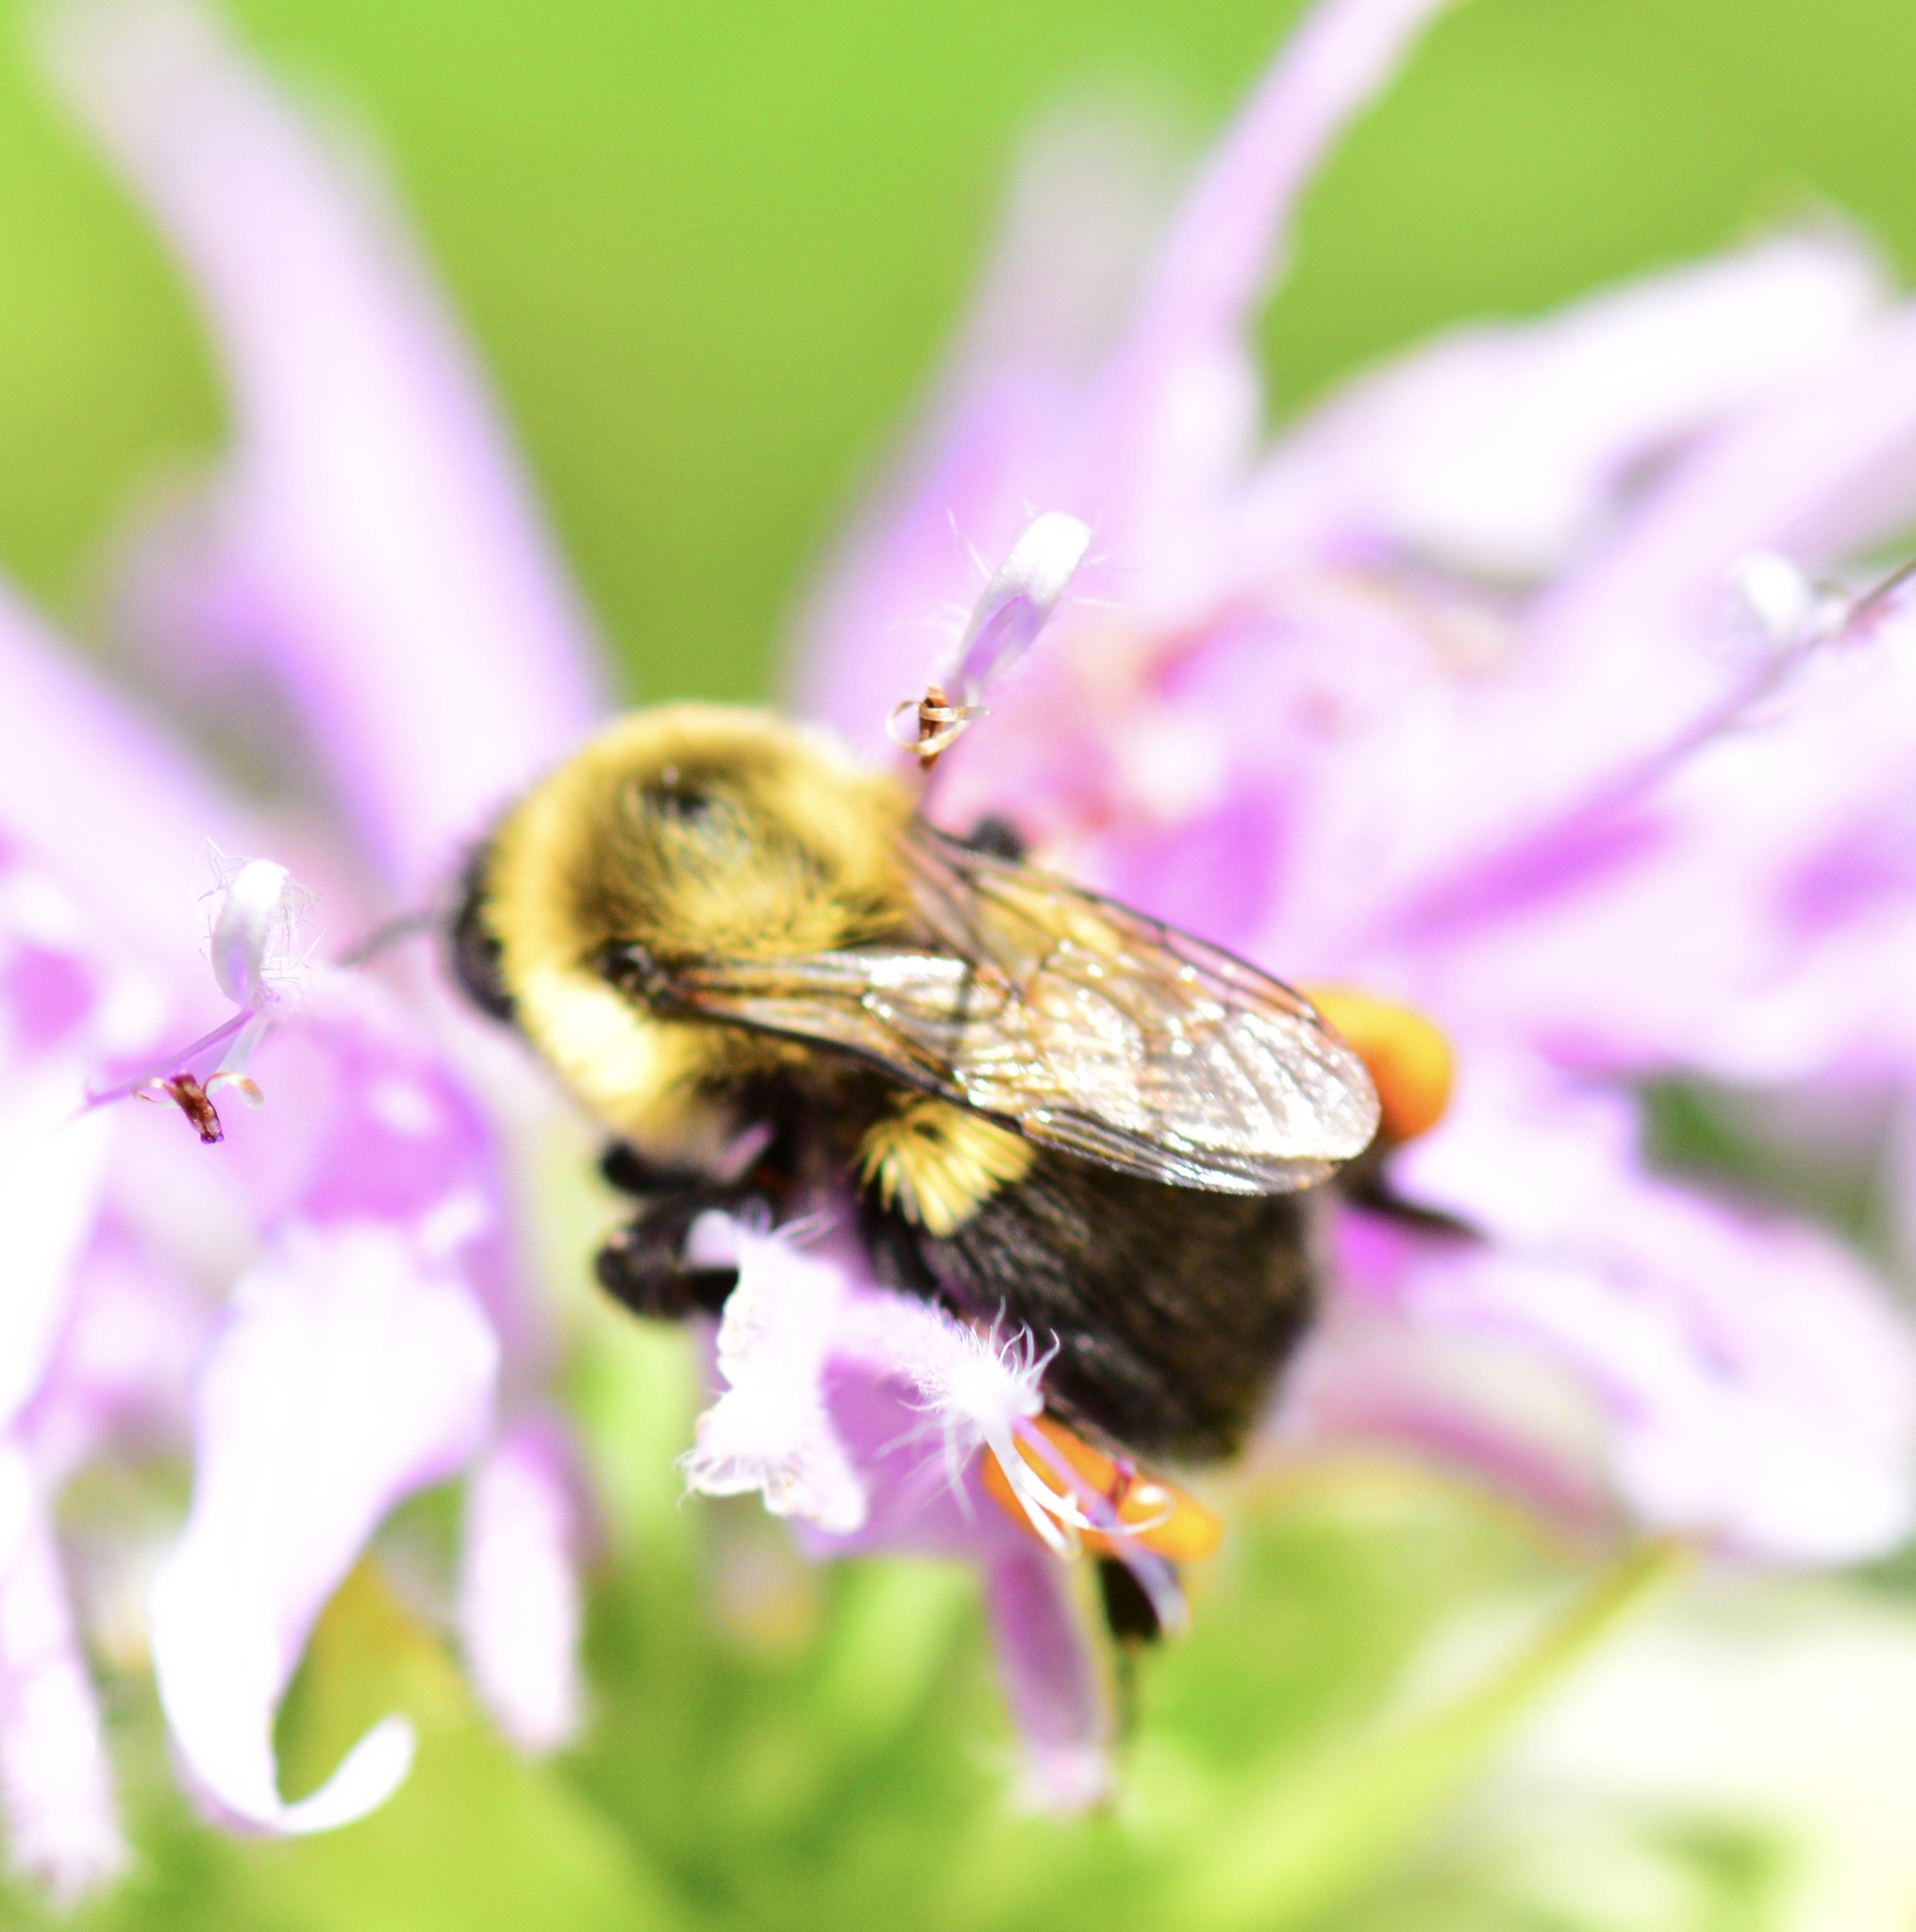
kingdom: Animalia
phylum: Arthropoda
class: Insecta
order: Hymenoptera
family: Apidae
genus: Bombus
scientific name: Bombus impatiens
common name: Common eastern bumble bee
